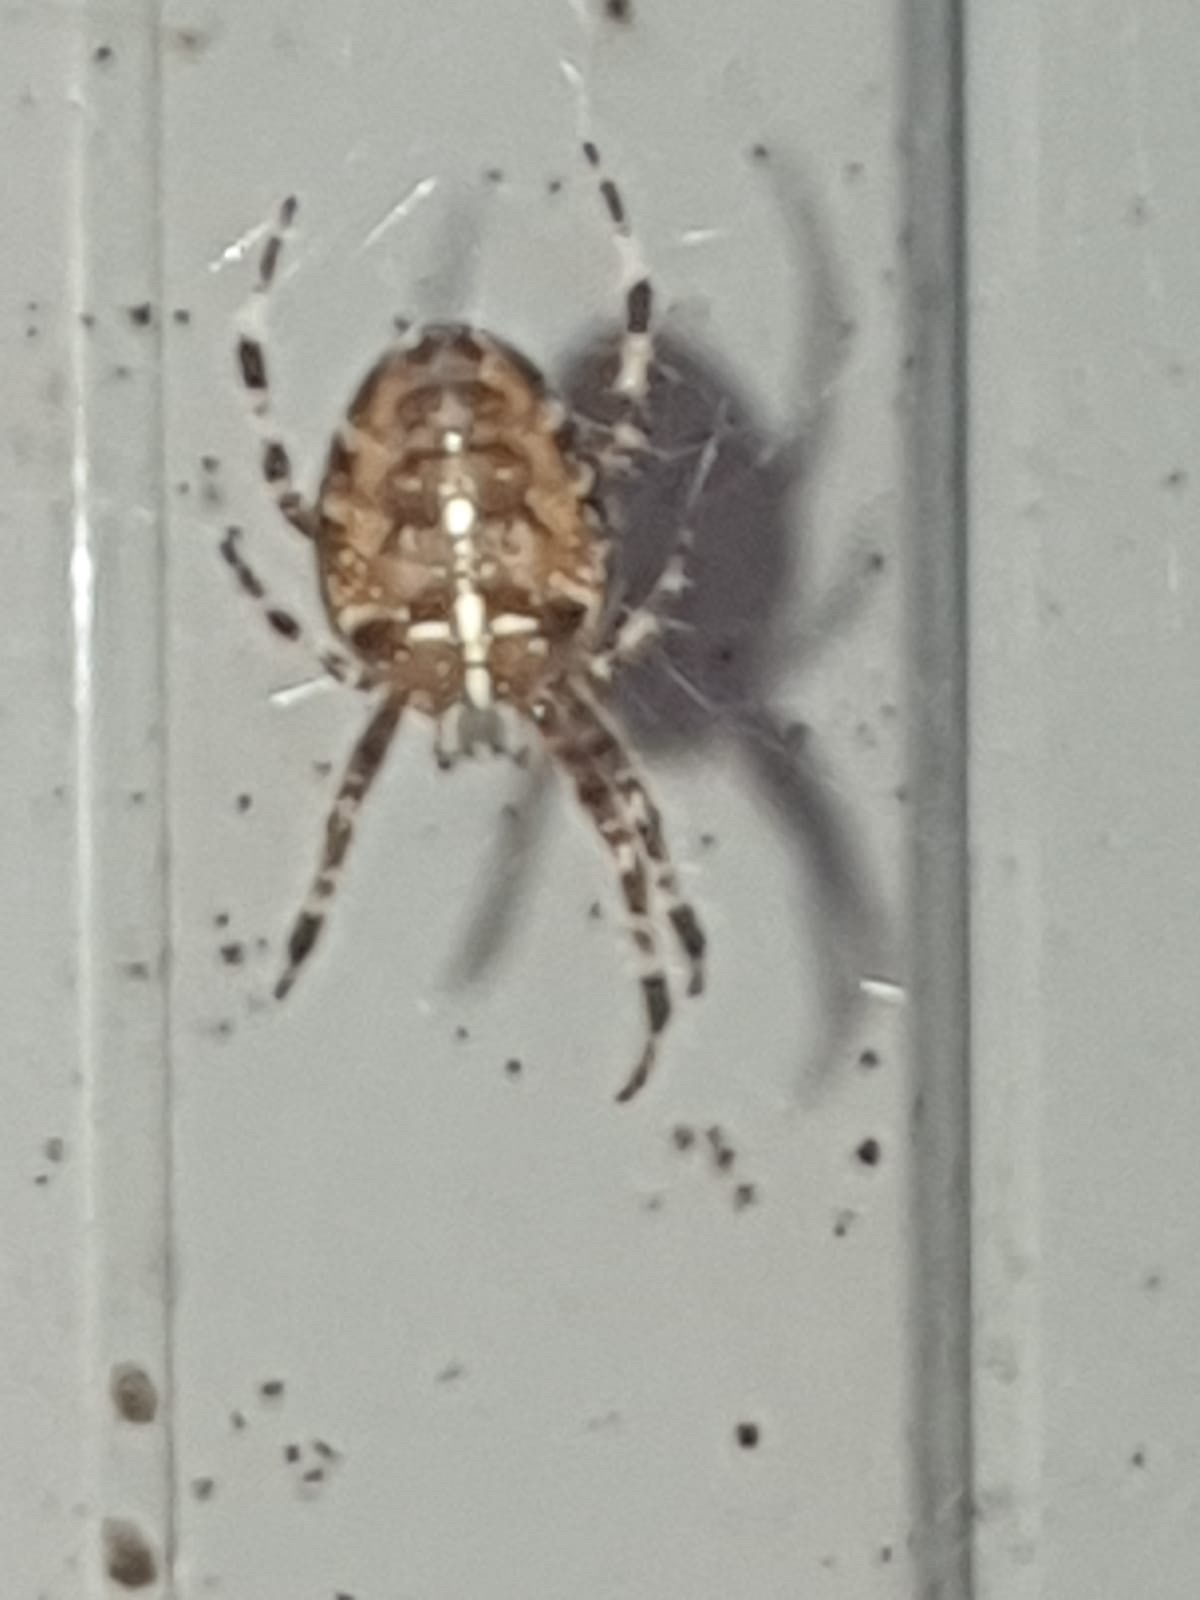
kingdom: Animalia
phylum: Arthropoda
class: Arachnida
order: Araneae
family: Araneidae
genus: Araneus
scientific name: Araneus diadematus
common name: Cross orbweaver
